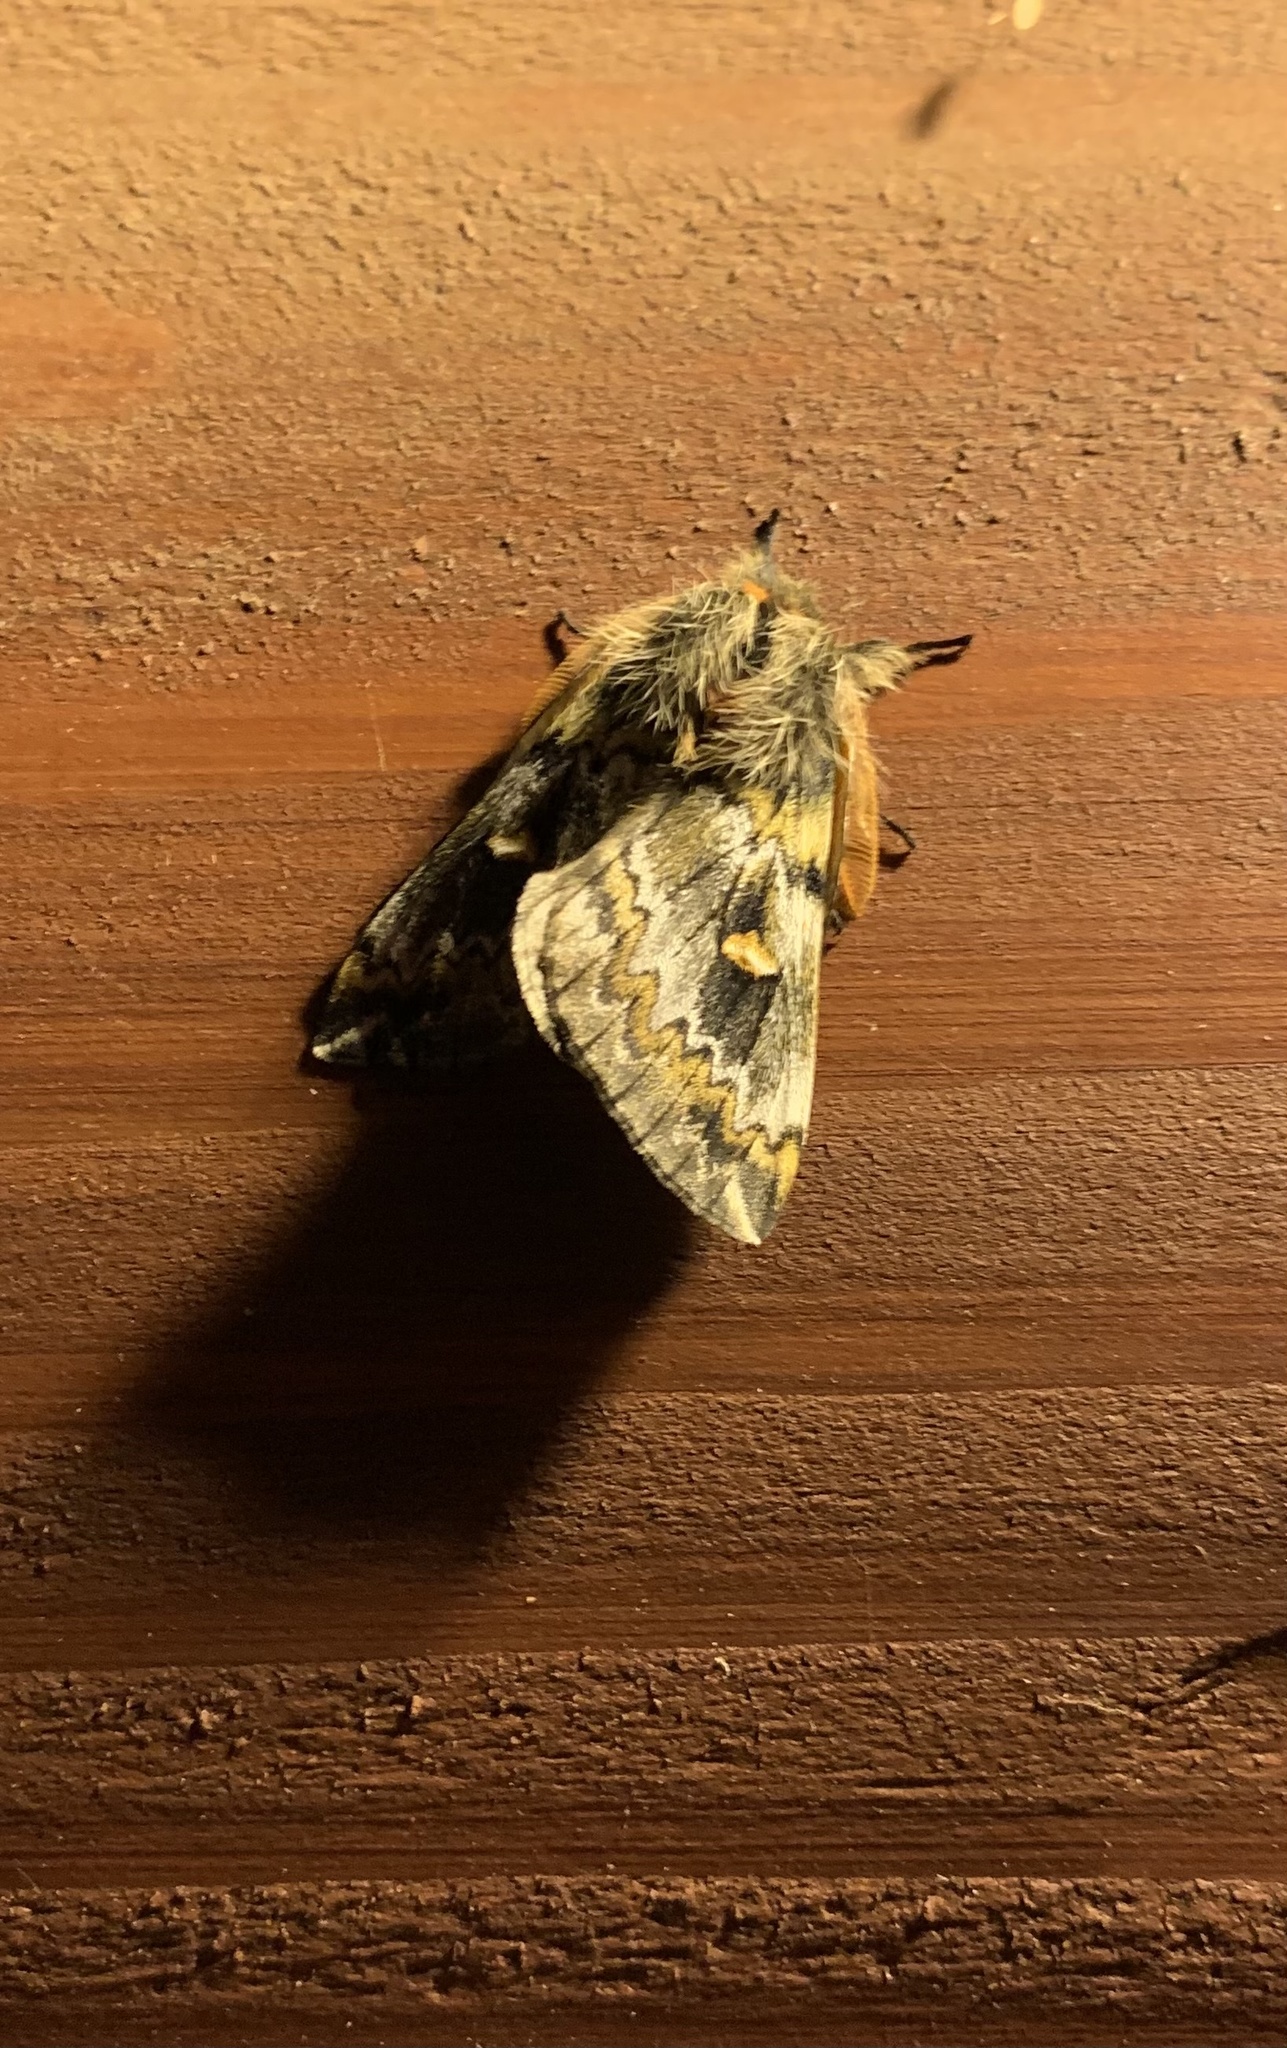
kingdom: Animalia
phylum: Arthropoda
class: Insecta
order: Lepidoptera
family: Saturniidae
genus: Ormiscodes
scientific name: Ormiscodes schmidtnielseni
